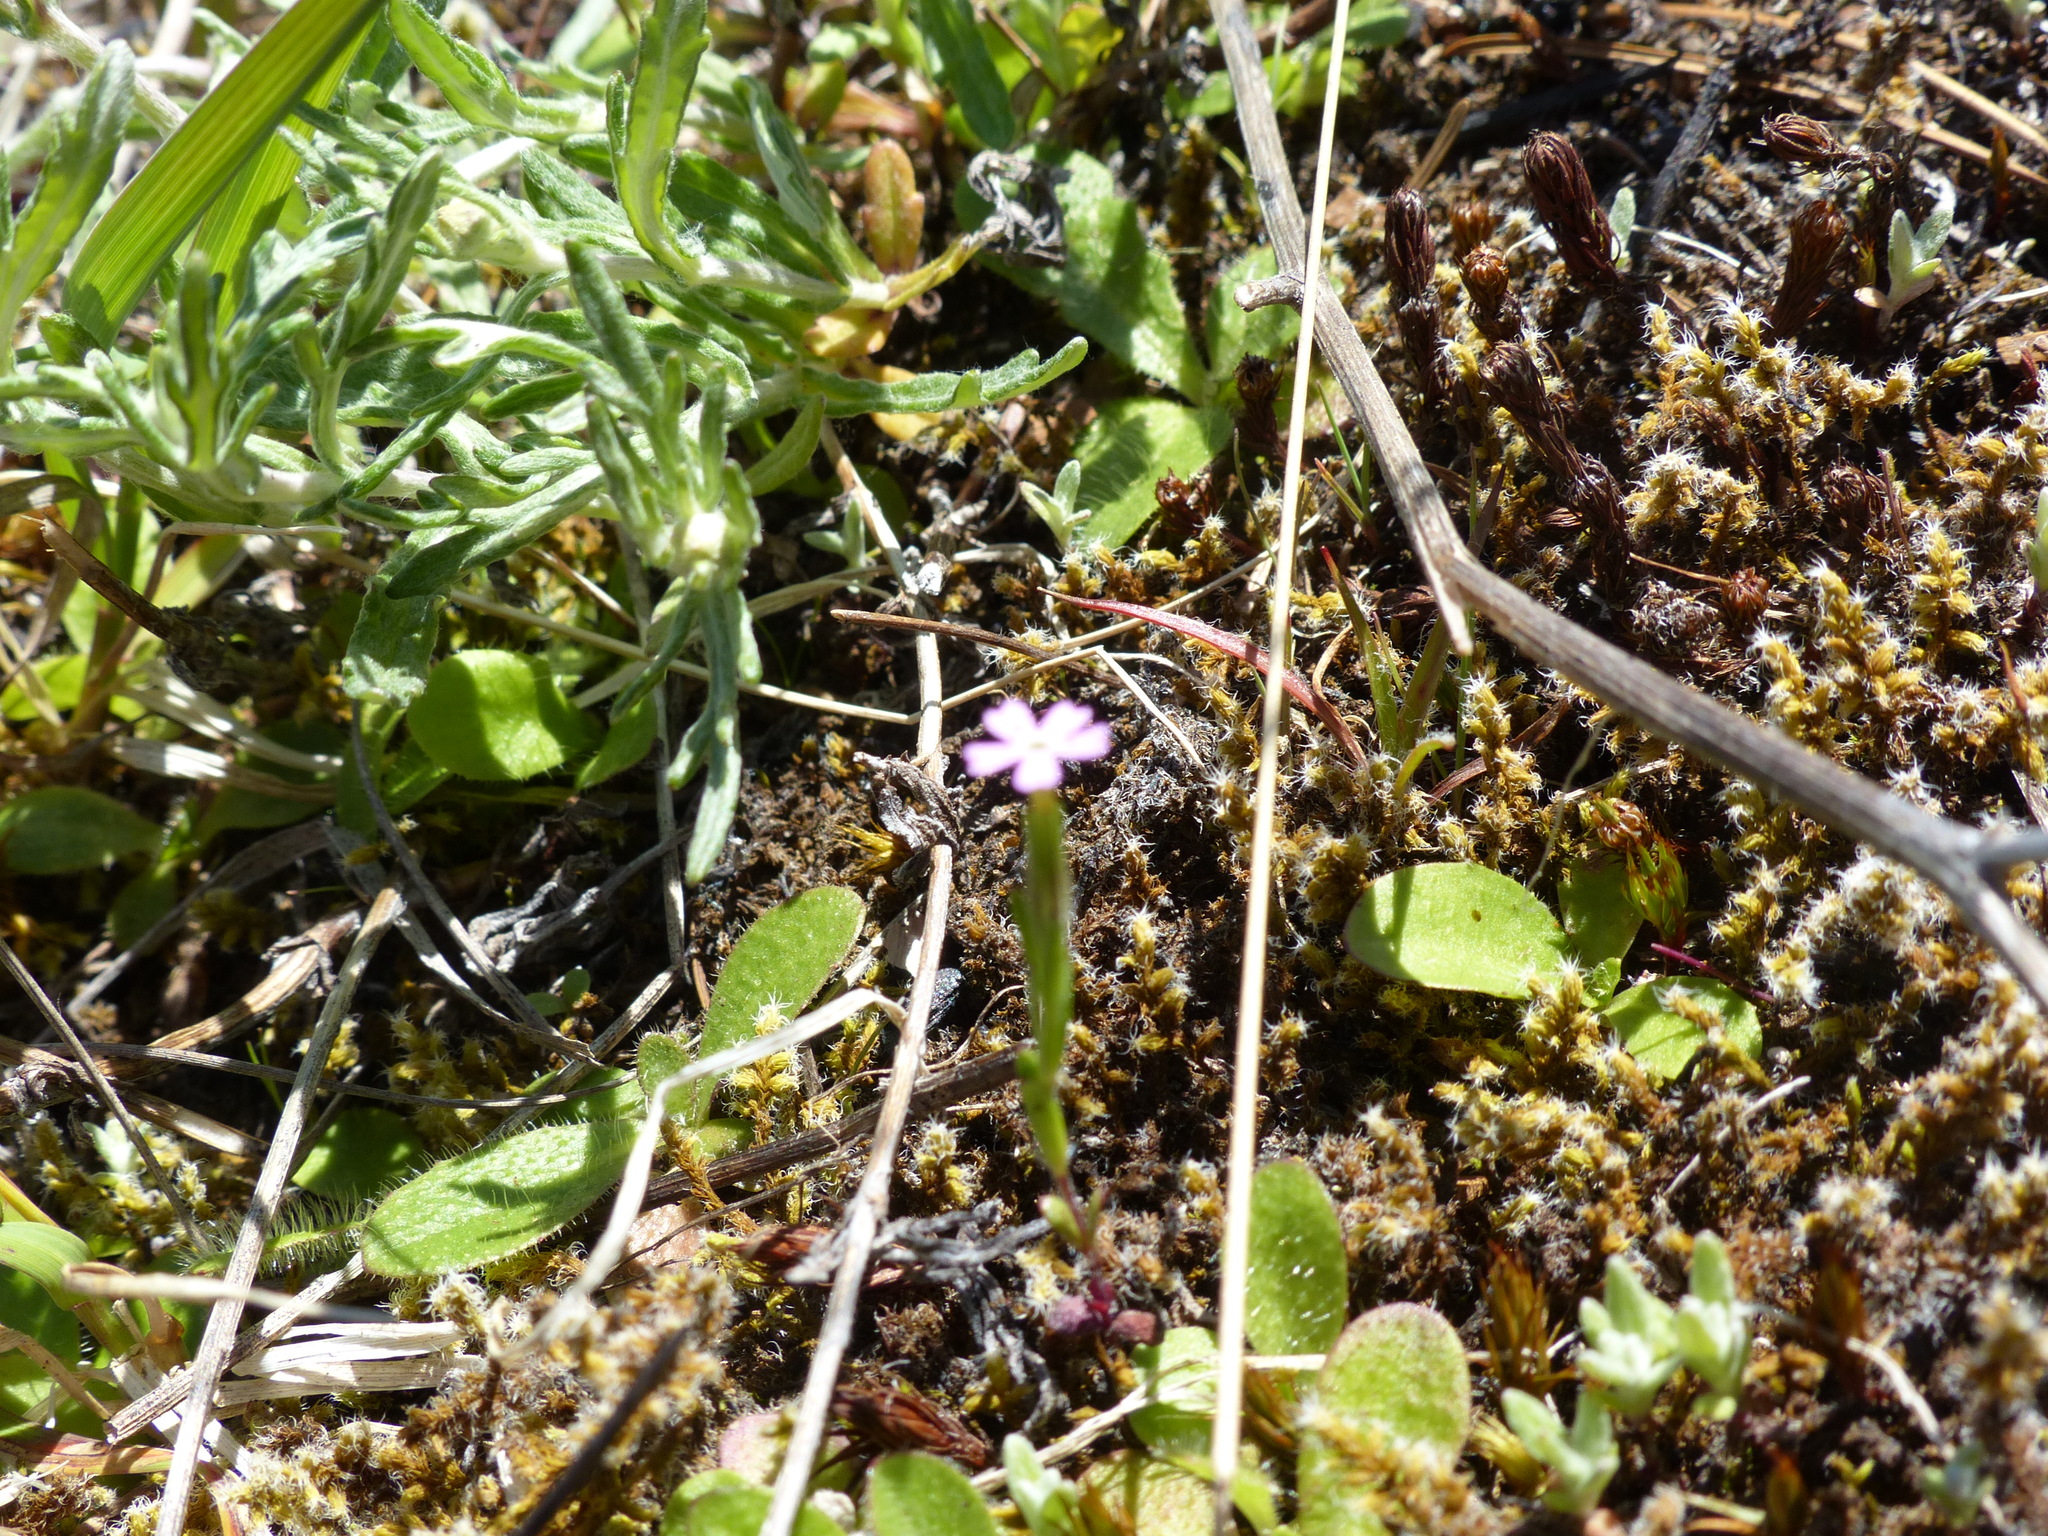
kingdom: Plantae
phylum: Tracheophyta
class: Magnoliopsida
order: Ericales
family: Polemoniaceae
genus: Phlox
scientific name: Phlox gracilis
